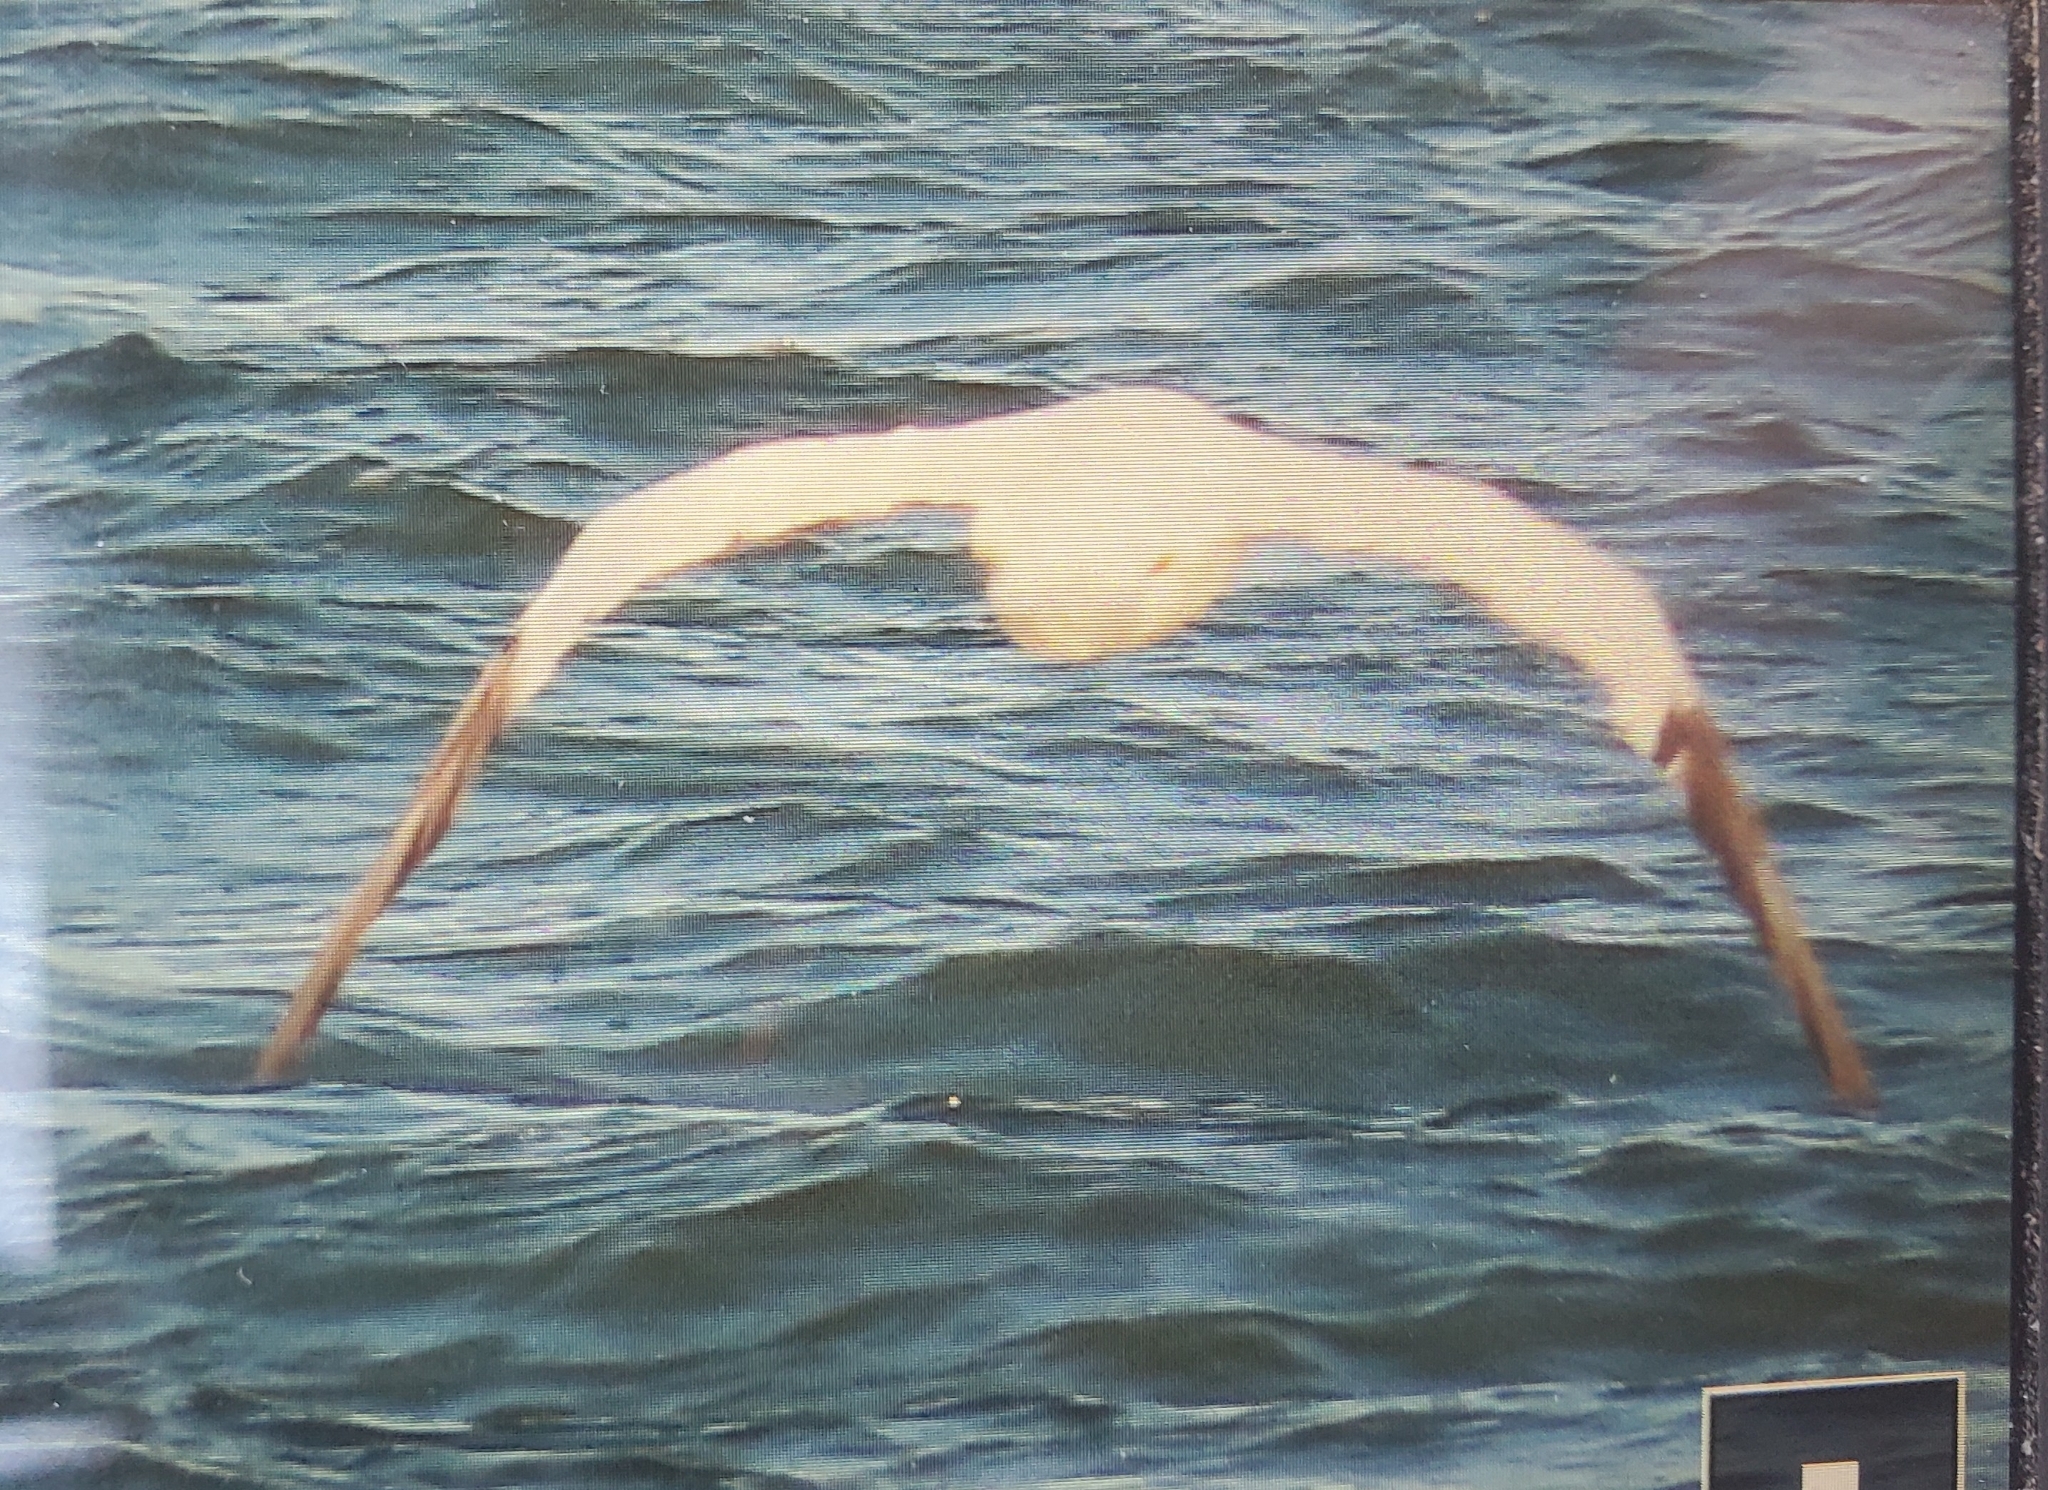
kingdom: Animalia
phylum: Chordata
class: Aves
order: Suliformes
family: Sulidae
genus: Morus
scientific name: Morus bassanus
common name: Northern gannet
